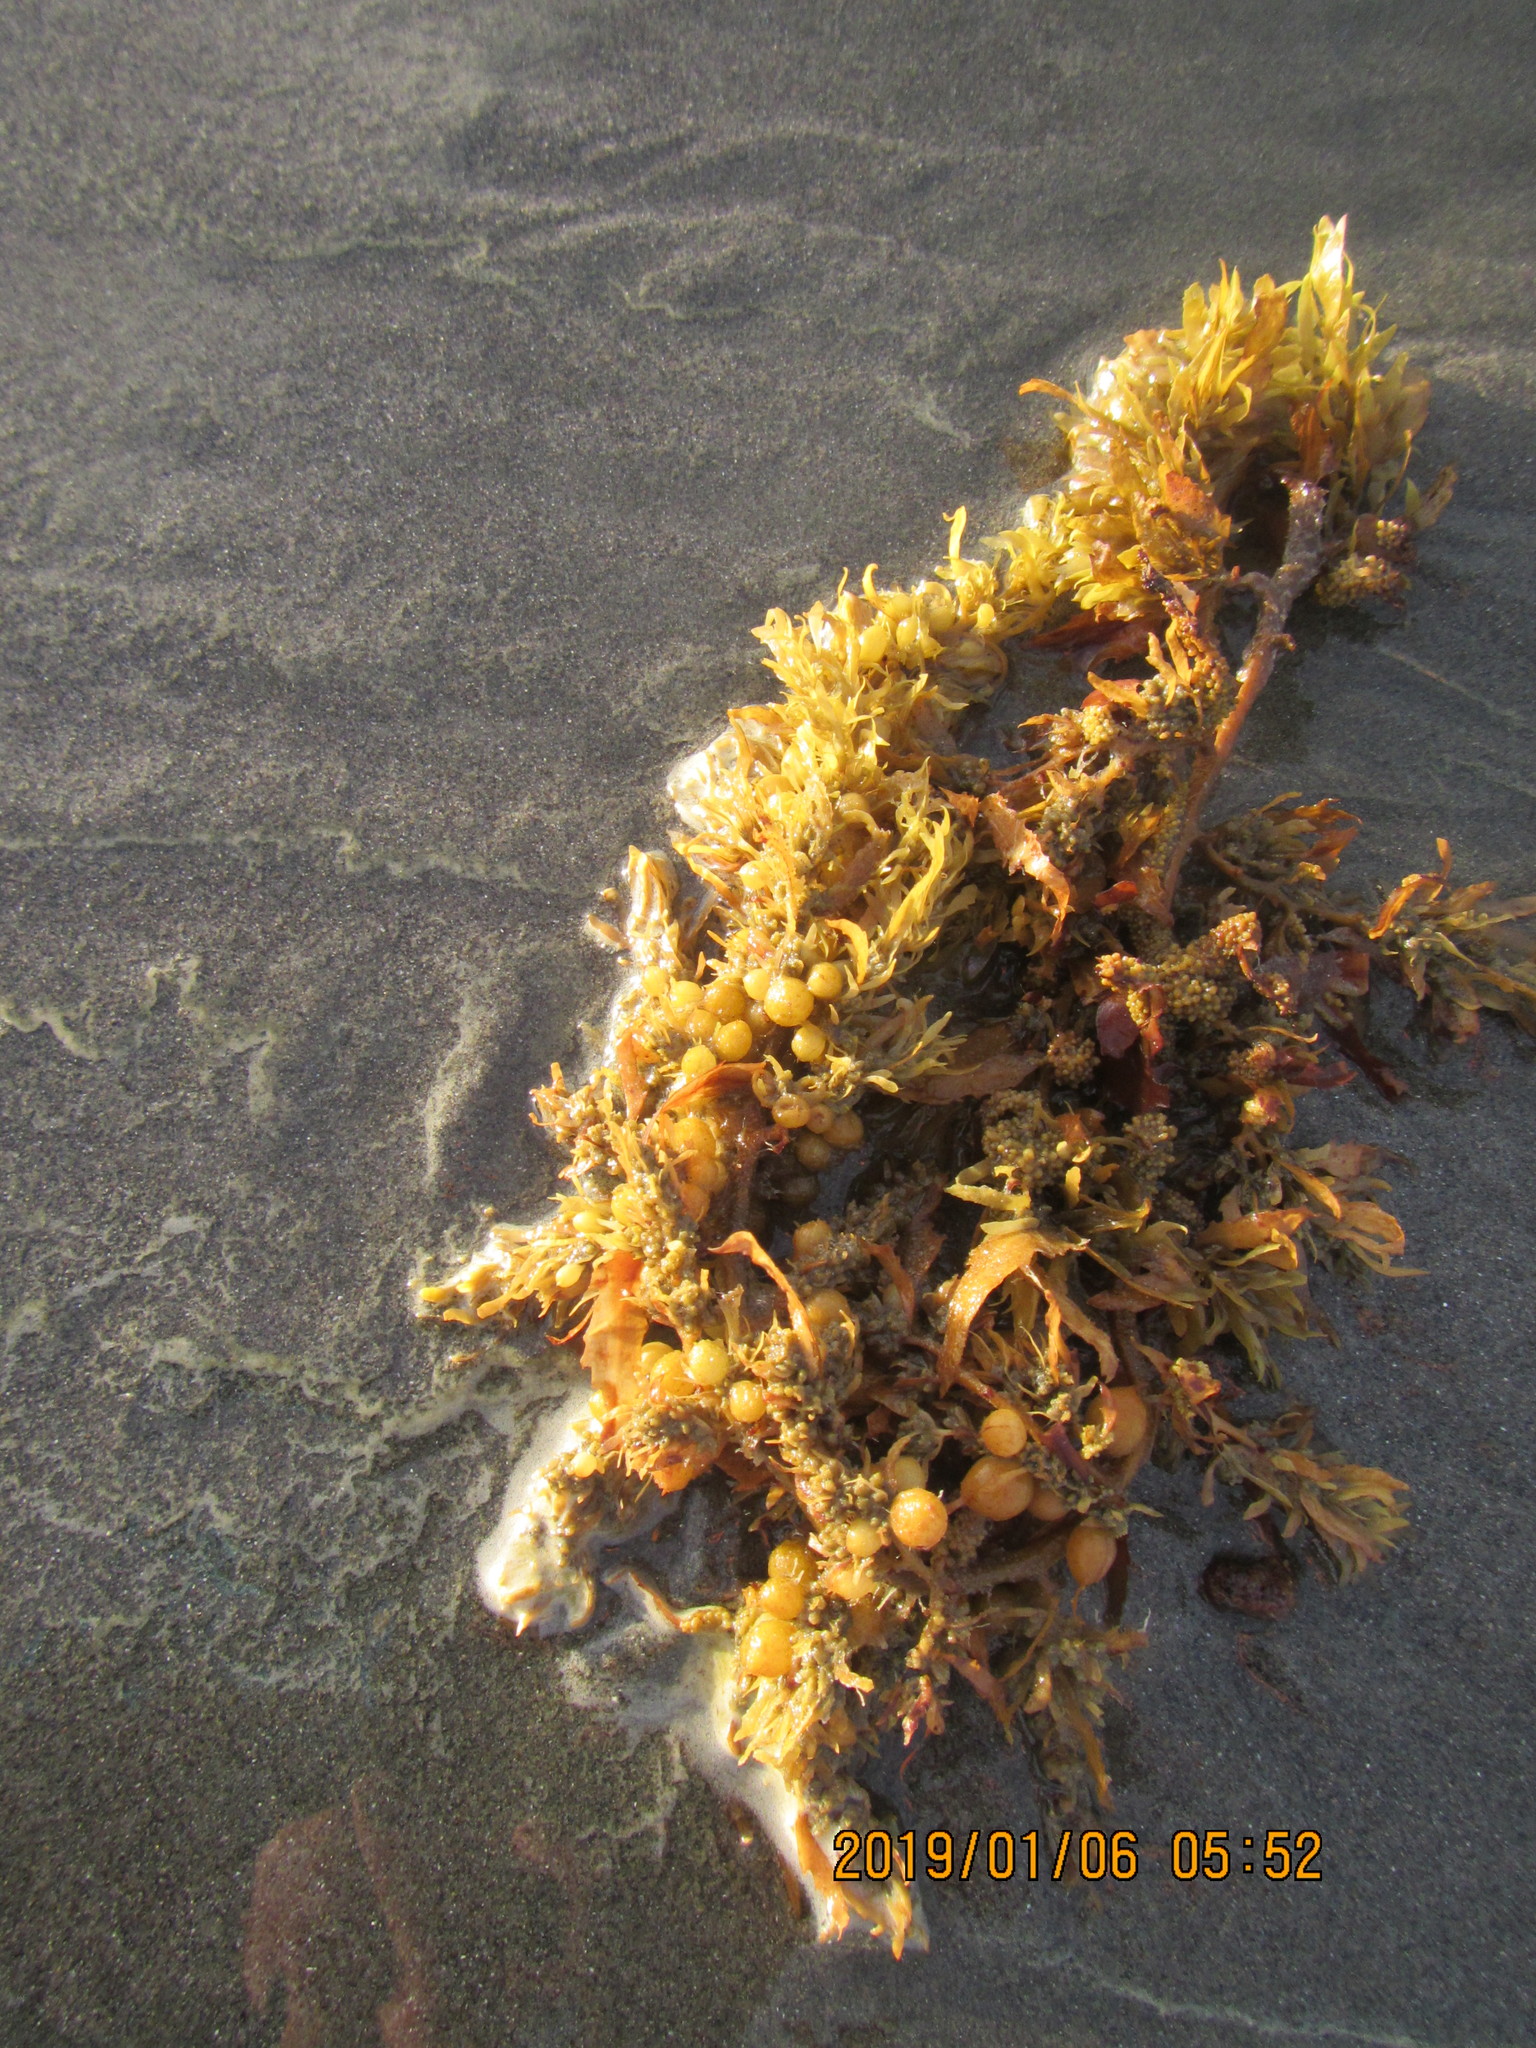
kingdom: Chromista
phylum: Ochrophyta
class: Phaeophyceae
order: Fucales
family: Sargassaceae
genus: Sargassum
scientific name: Sargassum sinclairii
